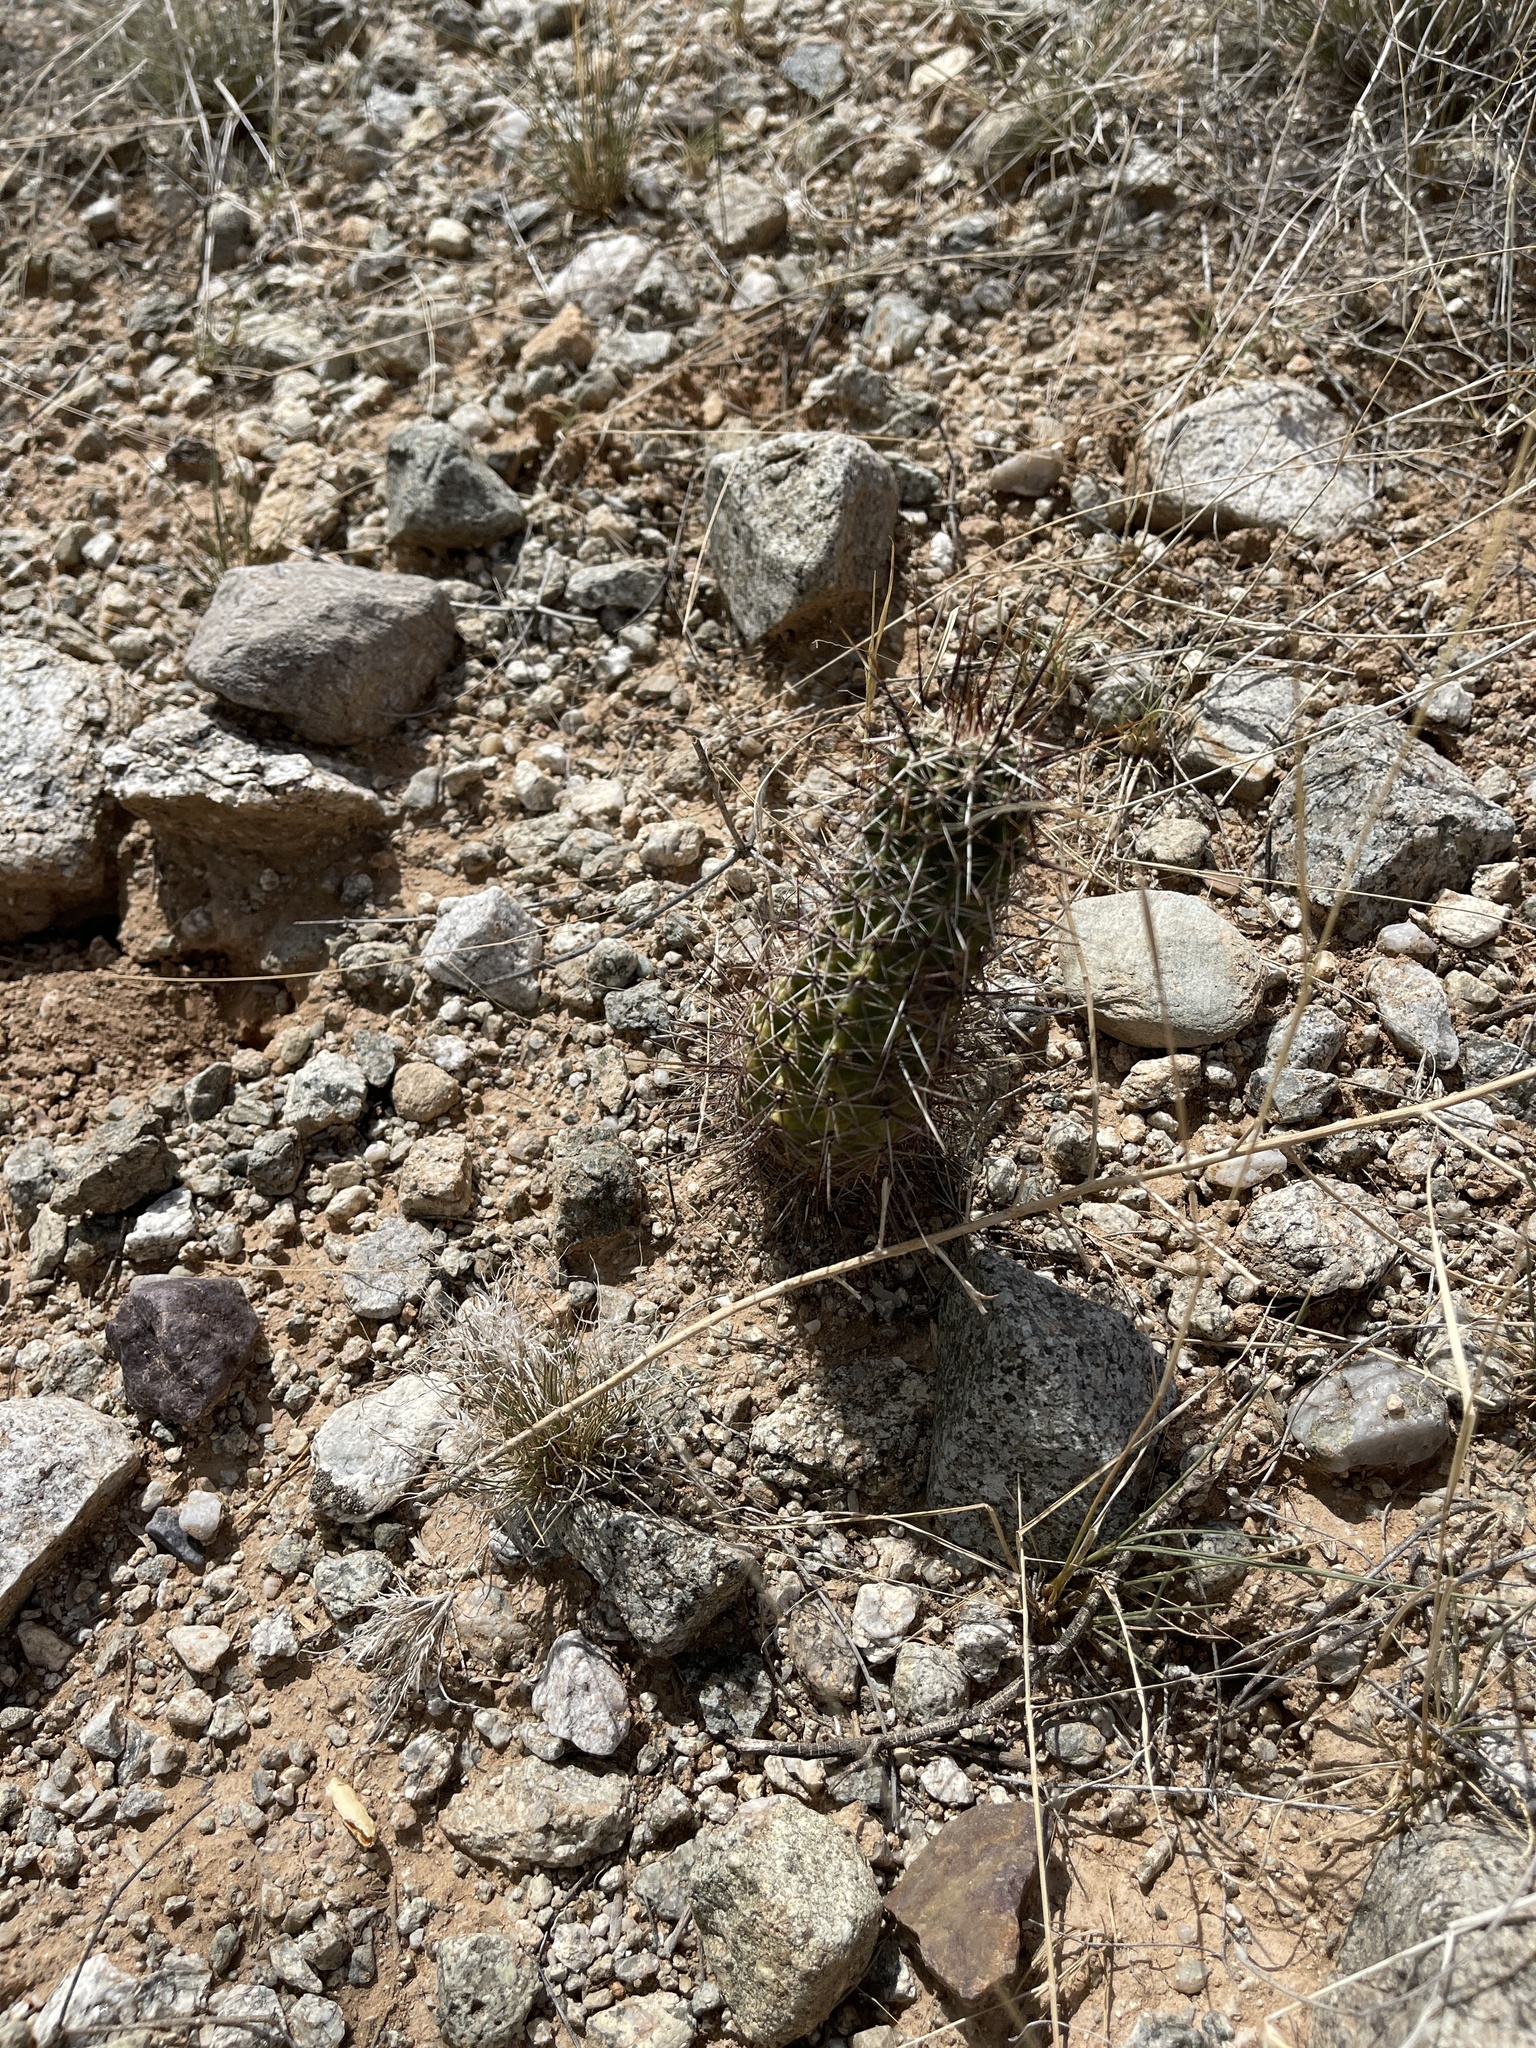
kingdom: Plantae
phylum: Tracheophyta
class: Magnoliopsida
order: Caryophyllales
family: Cactaceae
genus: Echinocereus
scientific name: Echinocereus fasciculatus
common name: Bundle hedgehog
